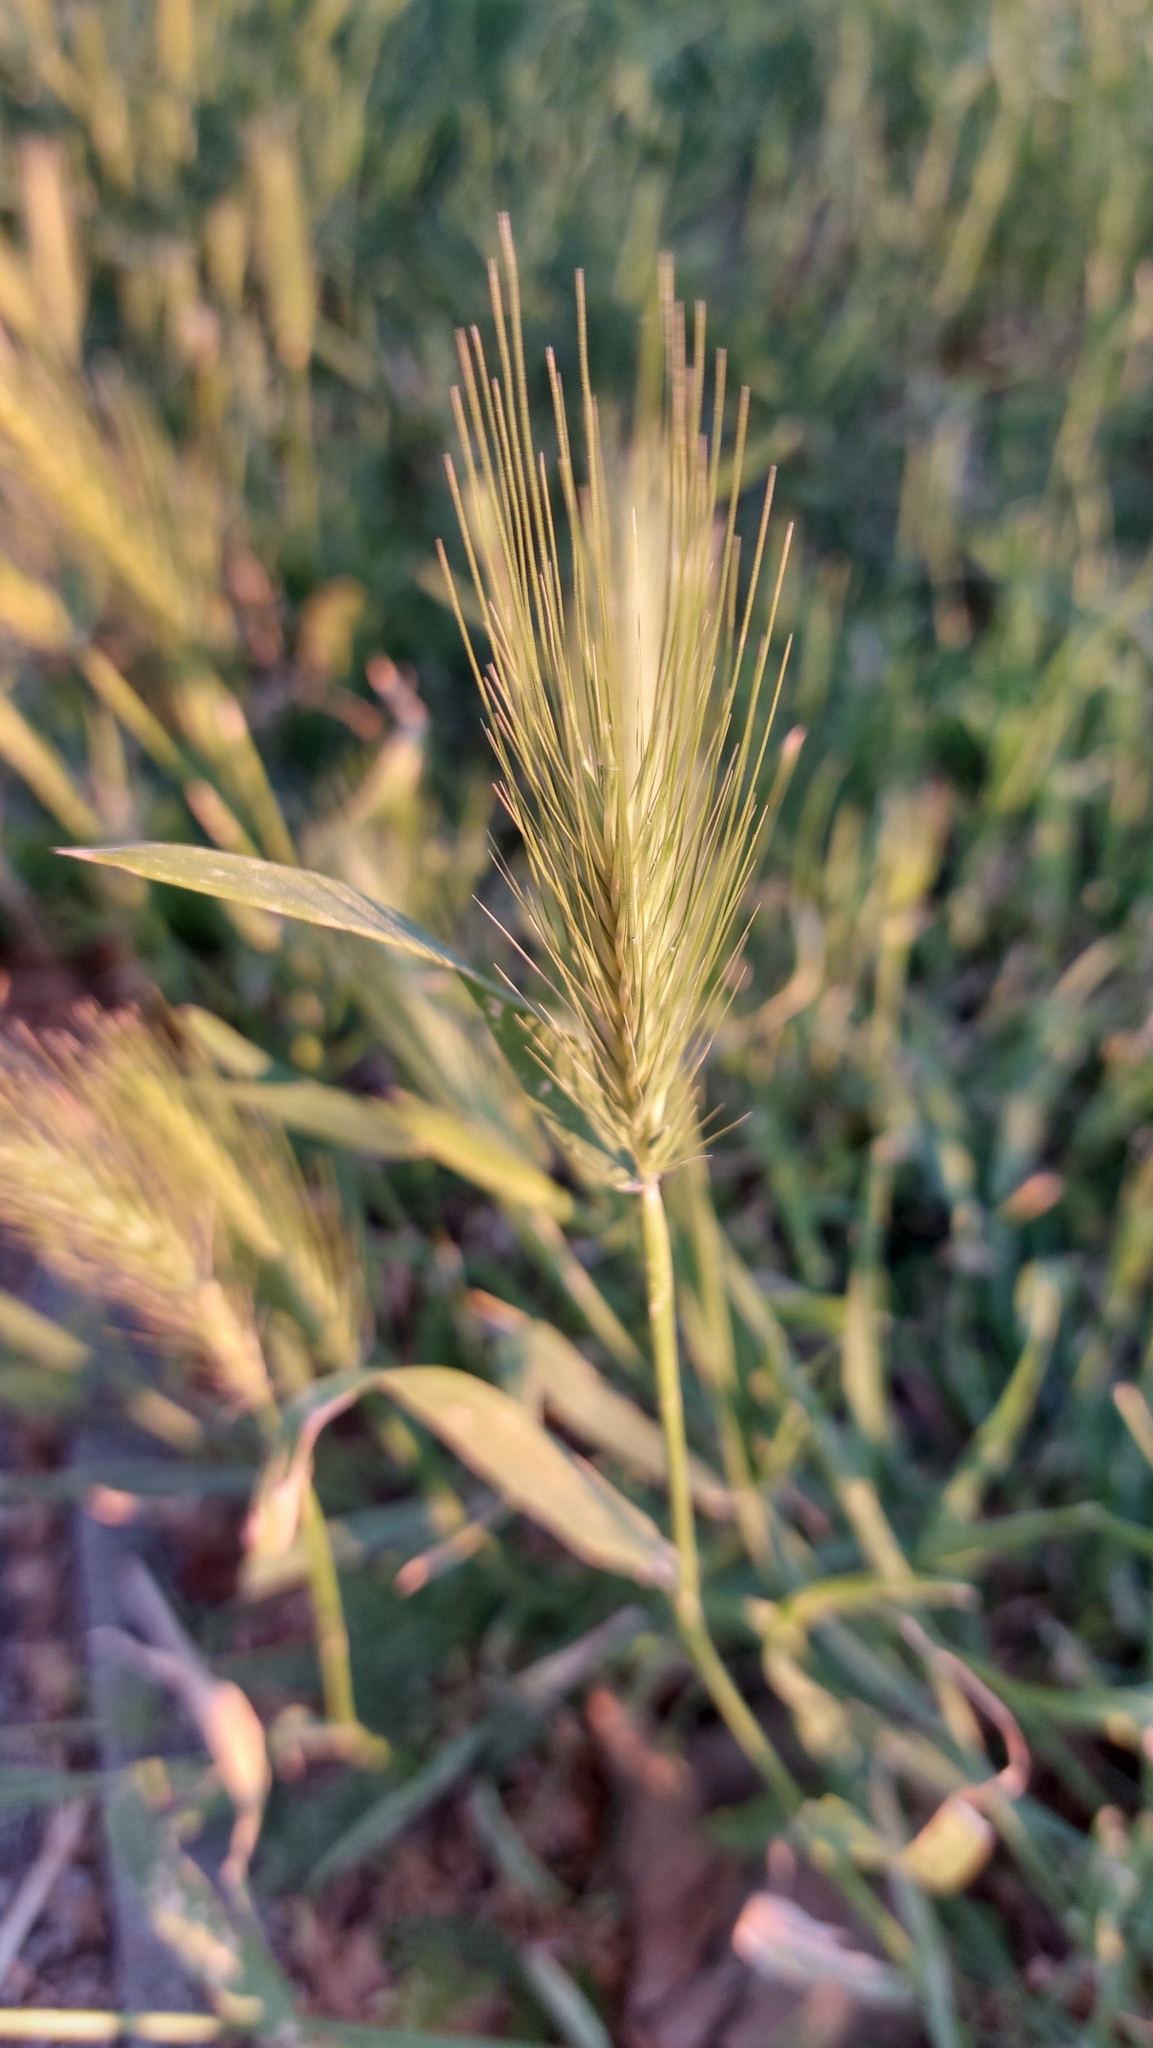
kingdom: Plantae
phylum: Tracheophyta
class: Liliopsida
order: Poales
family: Poaceae
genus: Hordeum
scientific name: Hordeum murinum
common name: Wall barley
